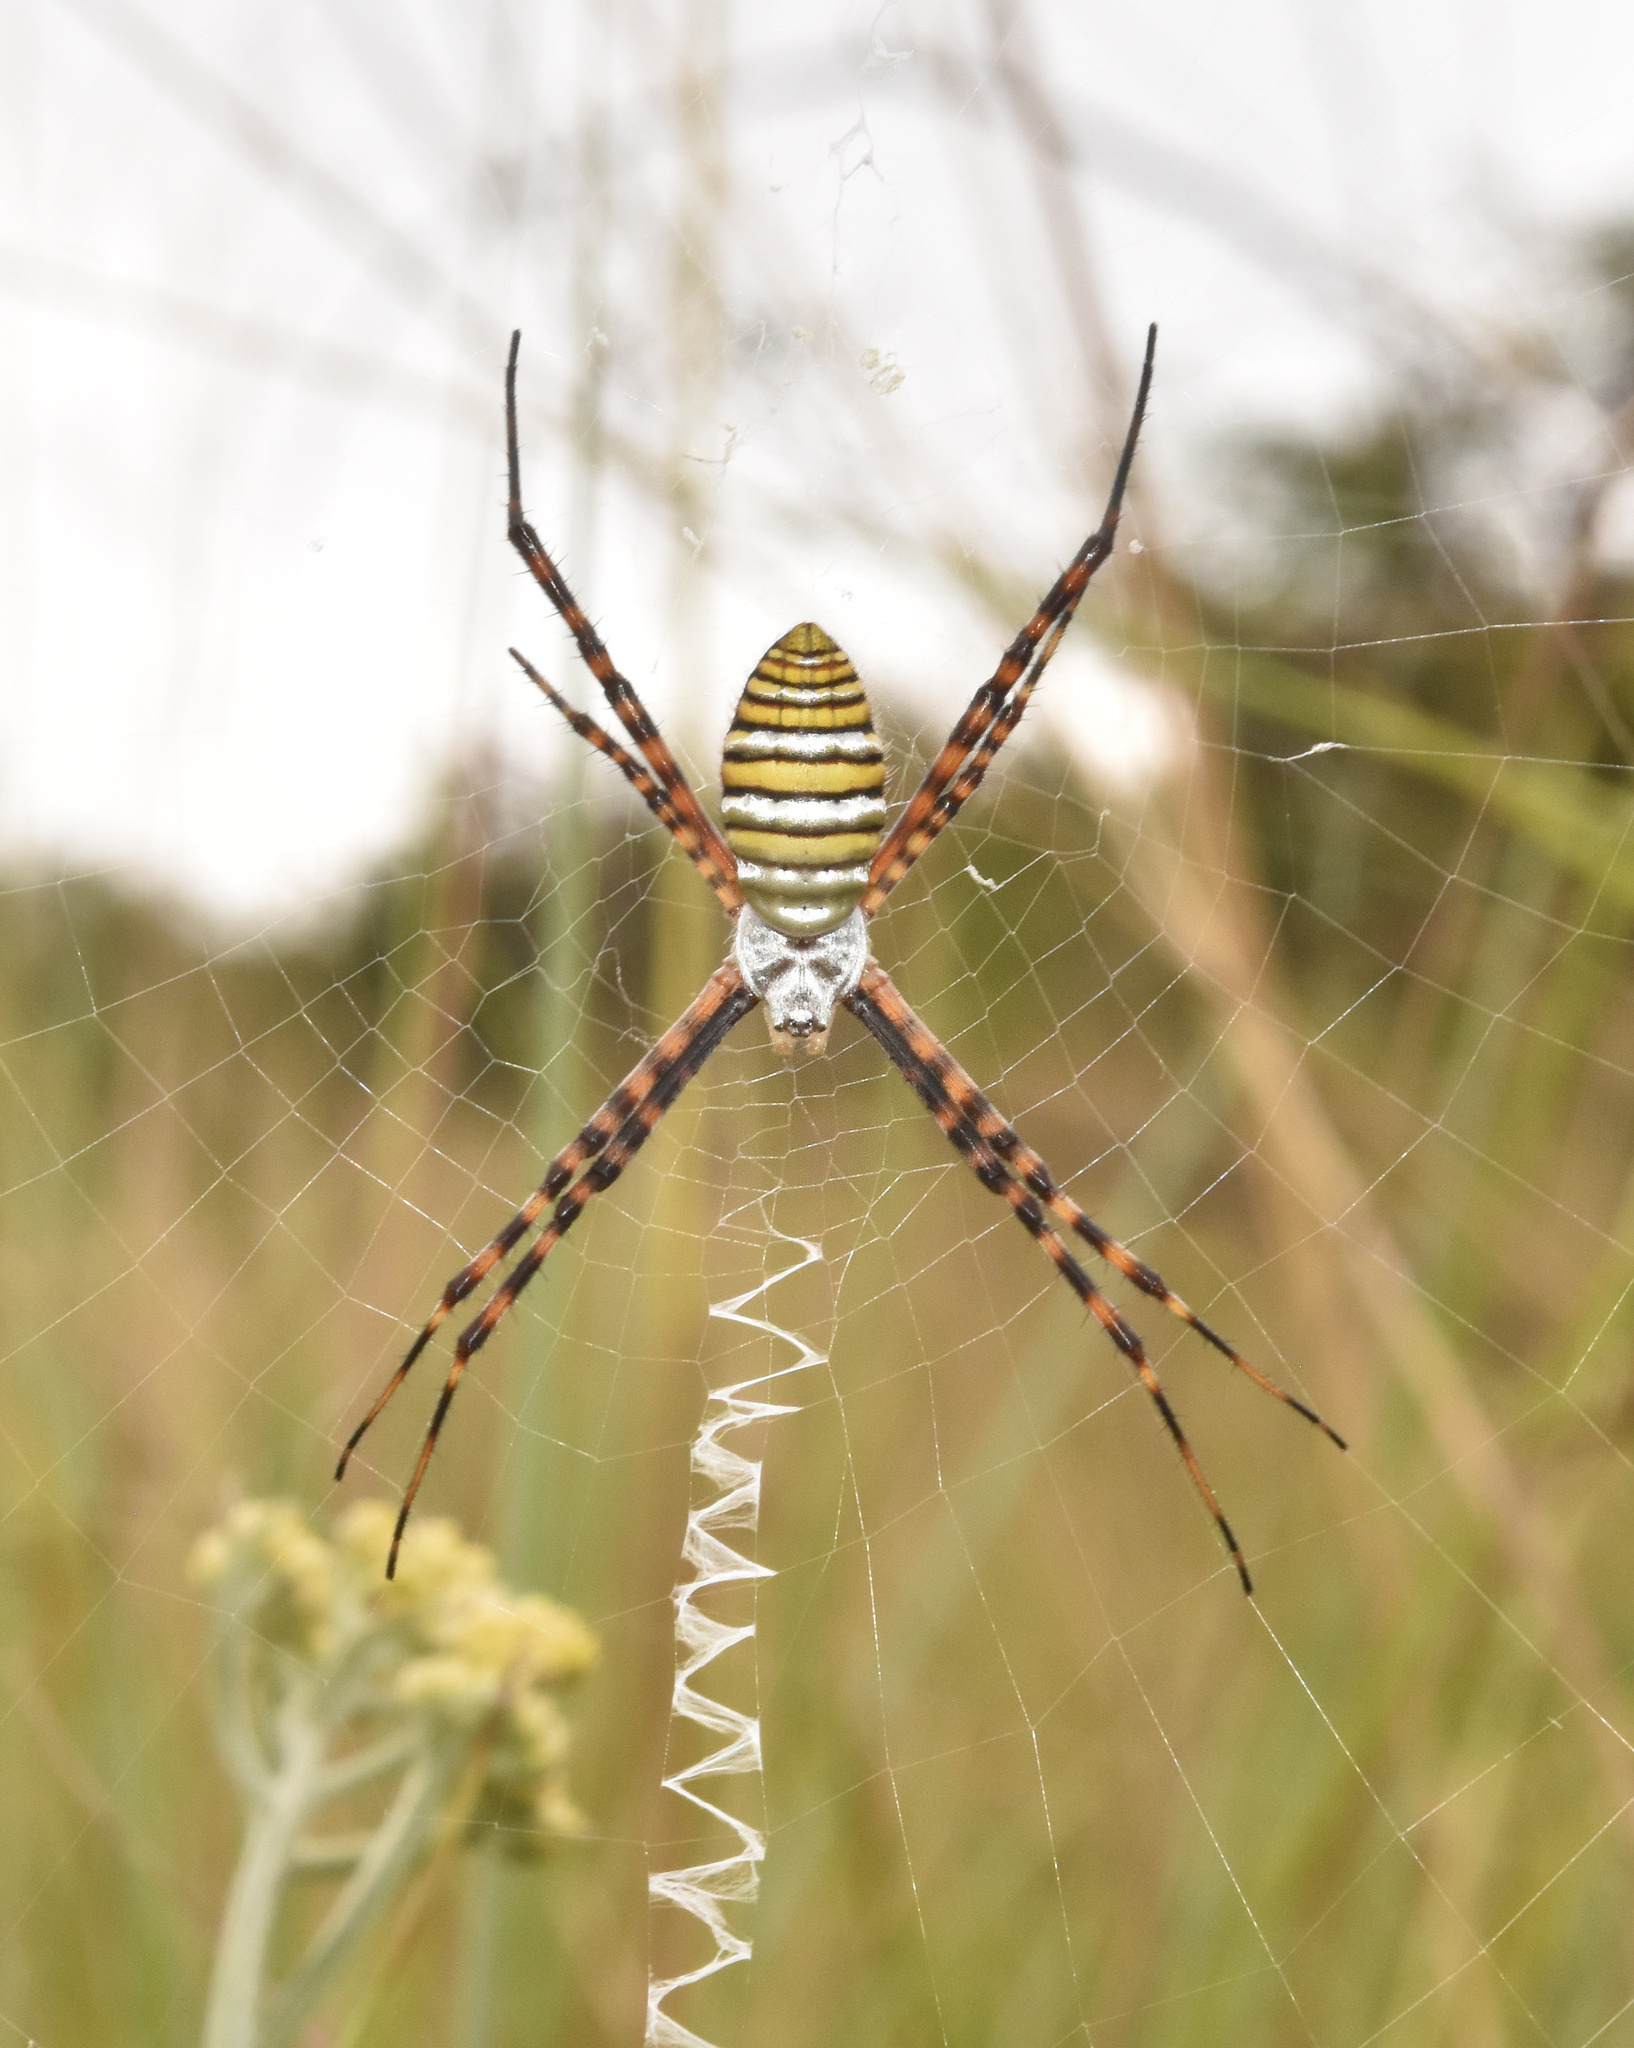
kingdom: Animalia
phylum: Arthropoda
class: Arachnida
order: Araneae
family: Araneidae
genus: Argiope
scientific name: Argiope trifasciata
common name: Banded garden spider
